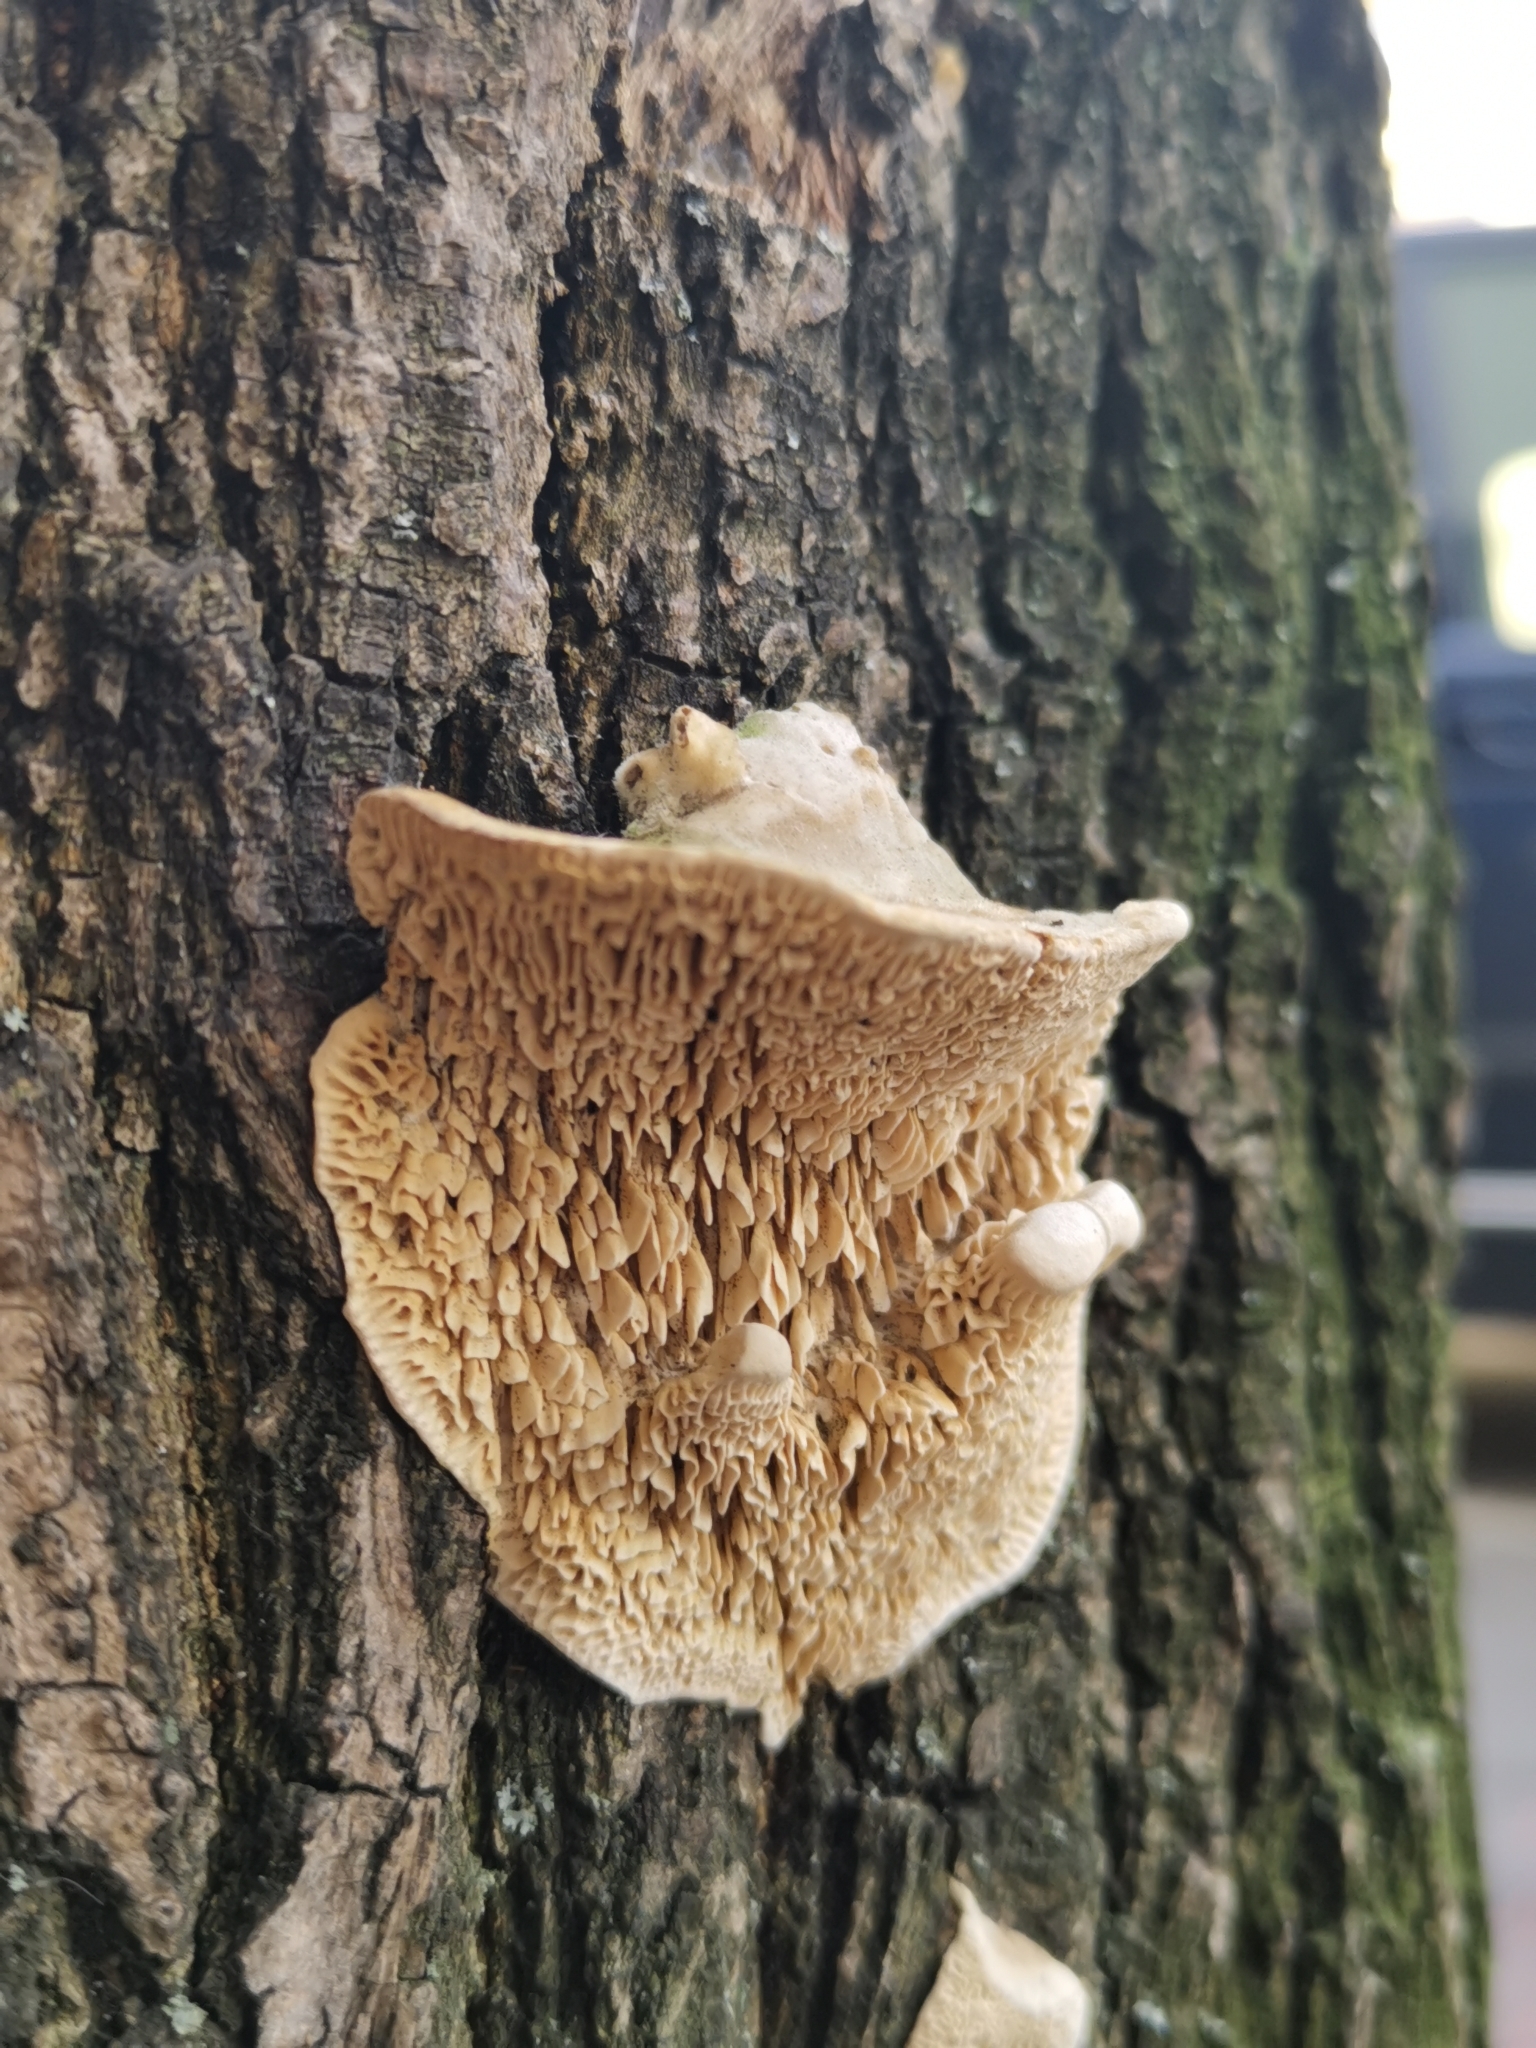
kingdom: Fungi
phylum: Basidiomycota
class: Agaricomycetes
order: Polyporales
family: Fomitopsidaceae
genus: Fomitopsis
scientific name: Fomitopsis
